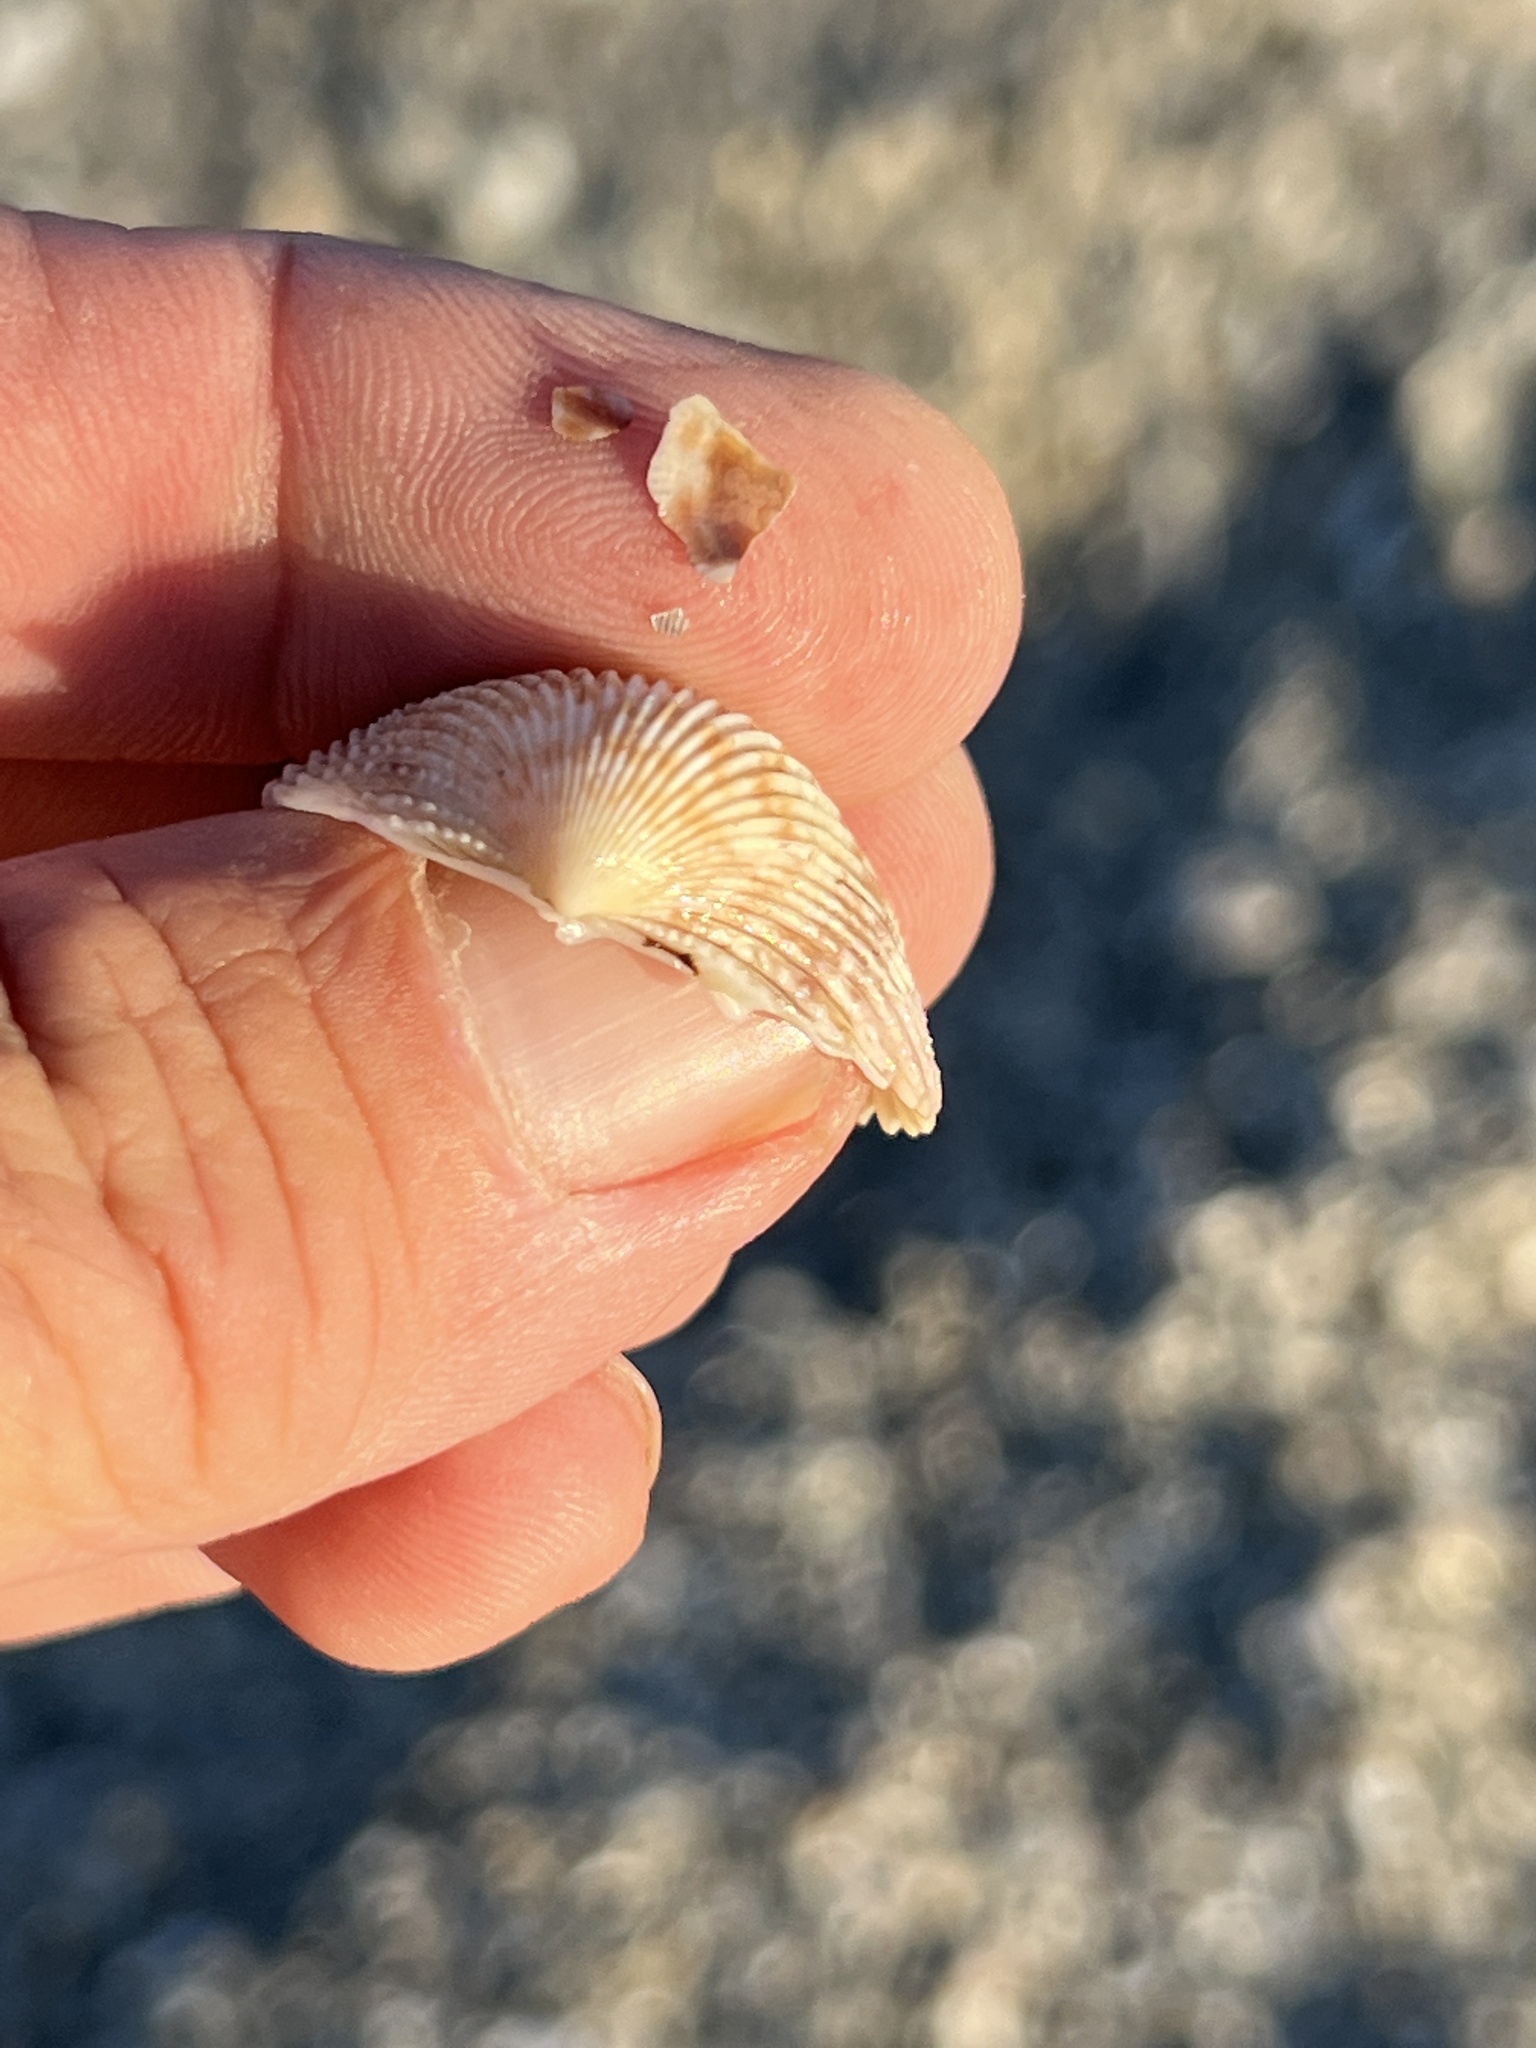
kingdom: Animalia
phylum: Mollusca
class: Bivalvia
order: Cardiida
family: Cardiidae
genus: Dallocardia
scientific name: Dallocardia muricata
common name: Yellow pricklycockle
